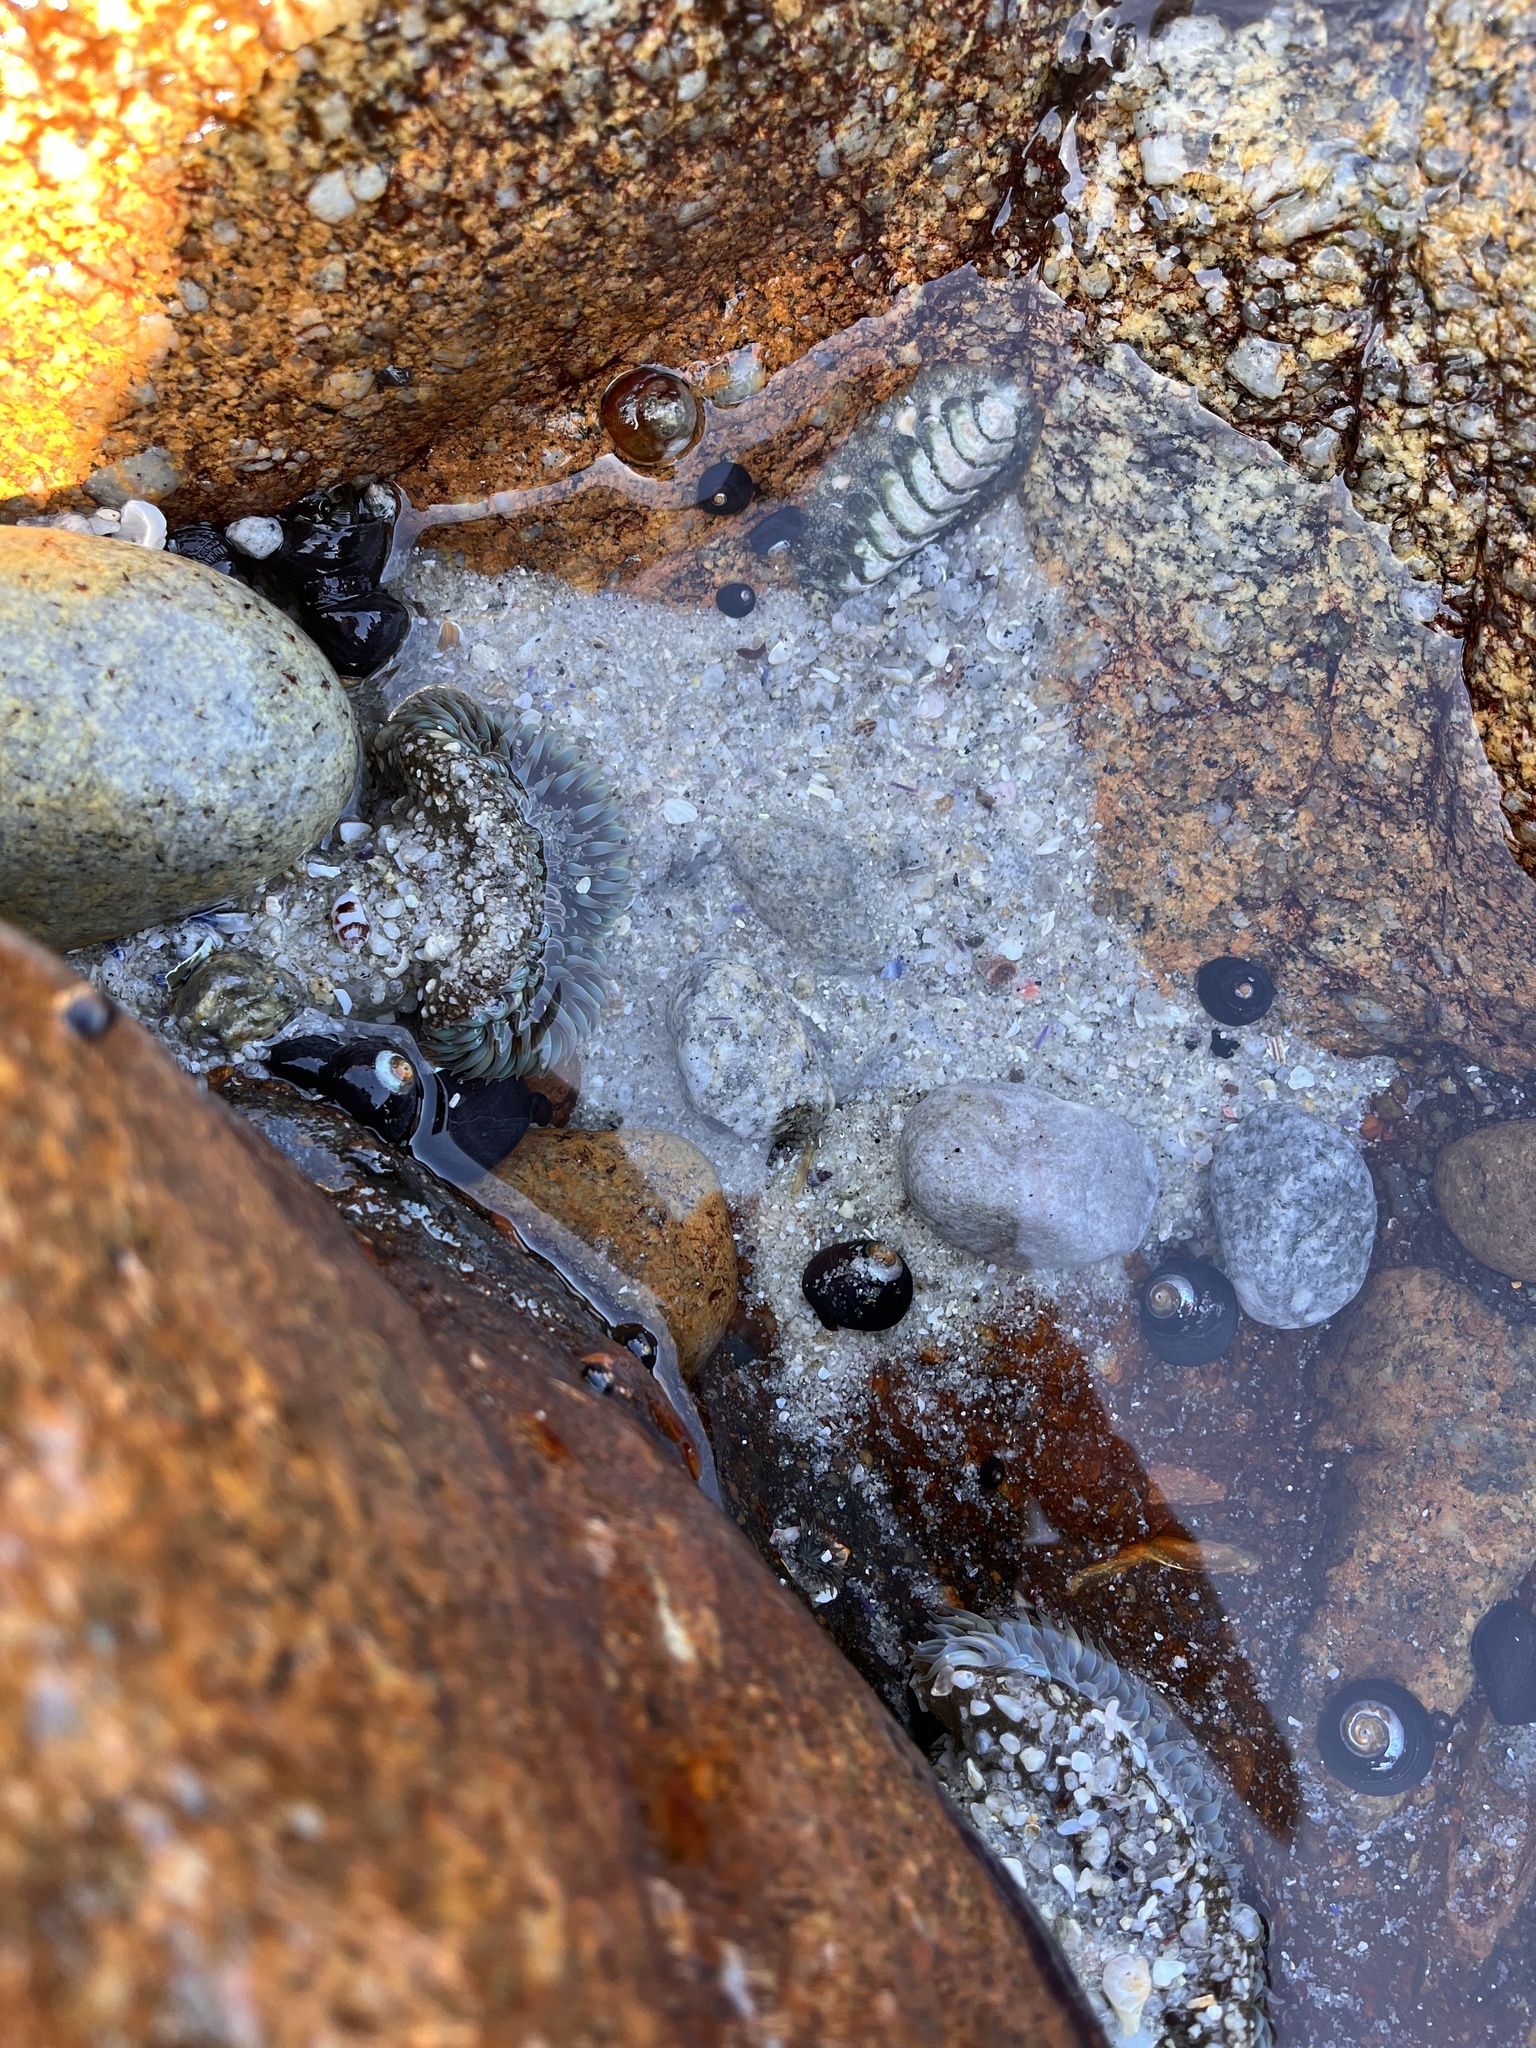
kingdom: Animalia
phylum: Mollusca
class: Polyplacophora
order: Chitonida
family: Mopaliidae
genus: Mopalia
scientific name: Mopalia lignosa
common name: Woody chiton
